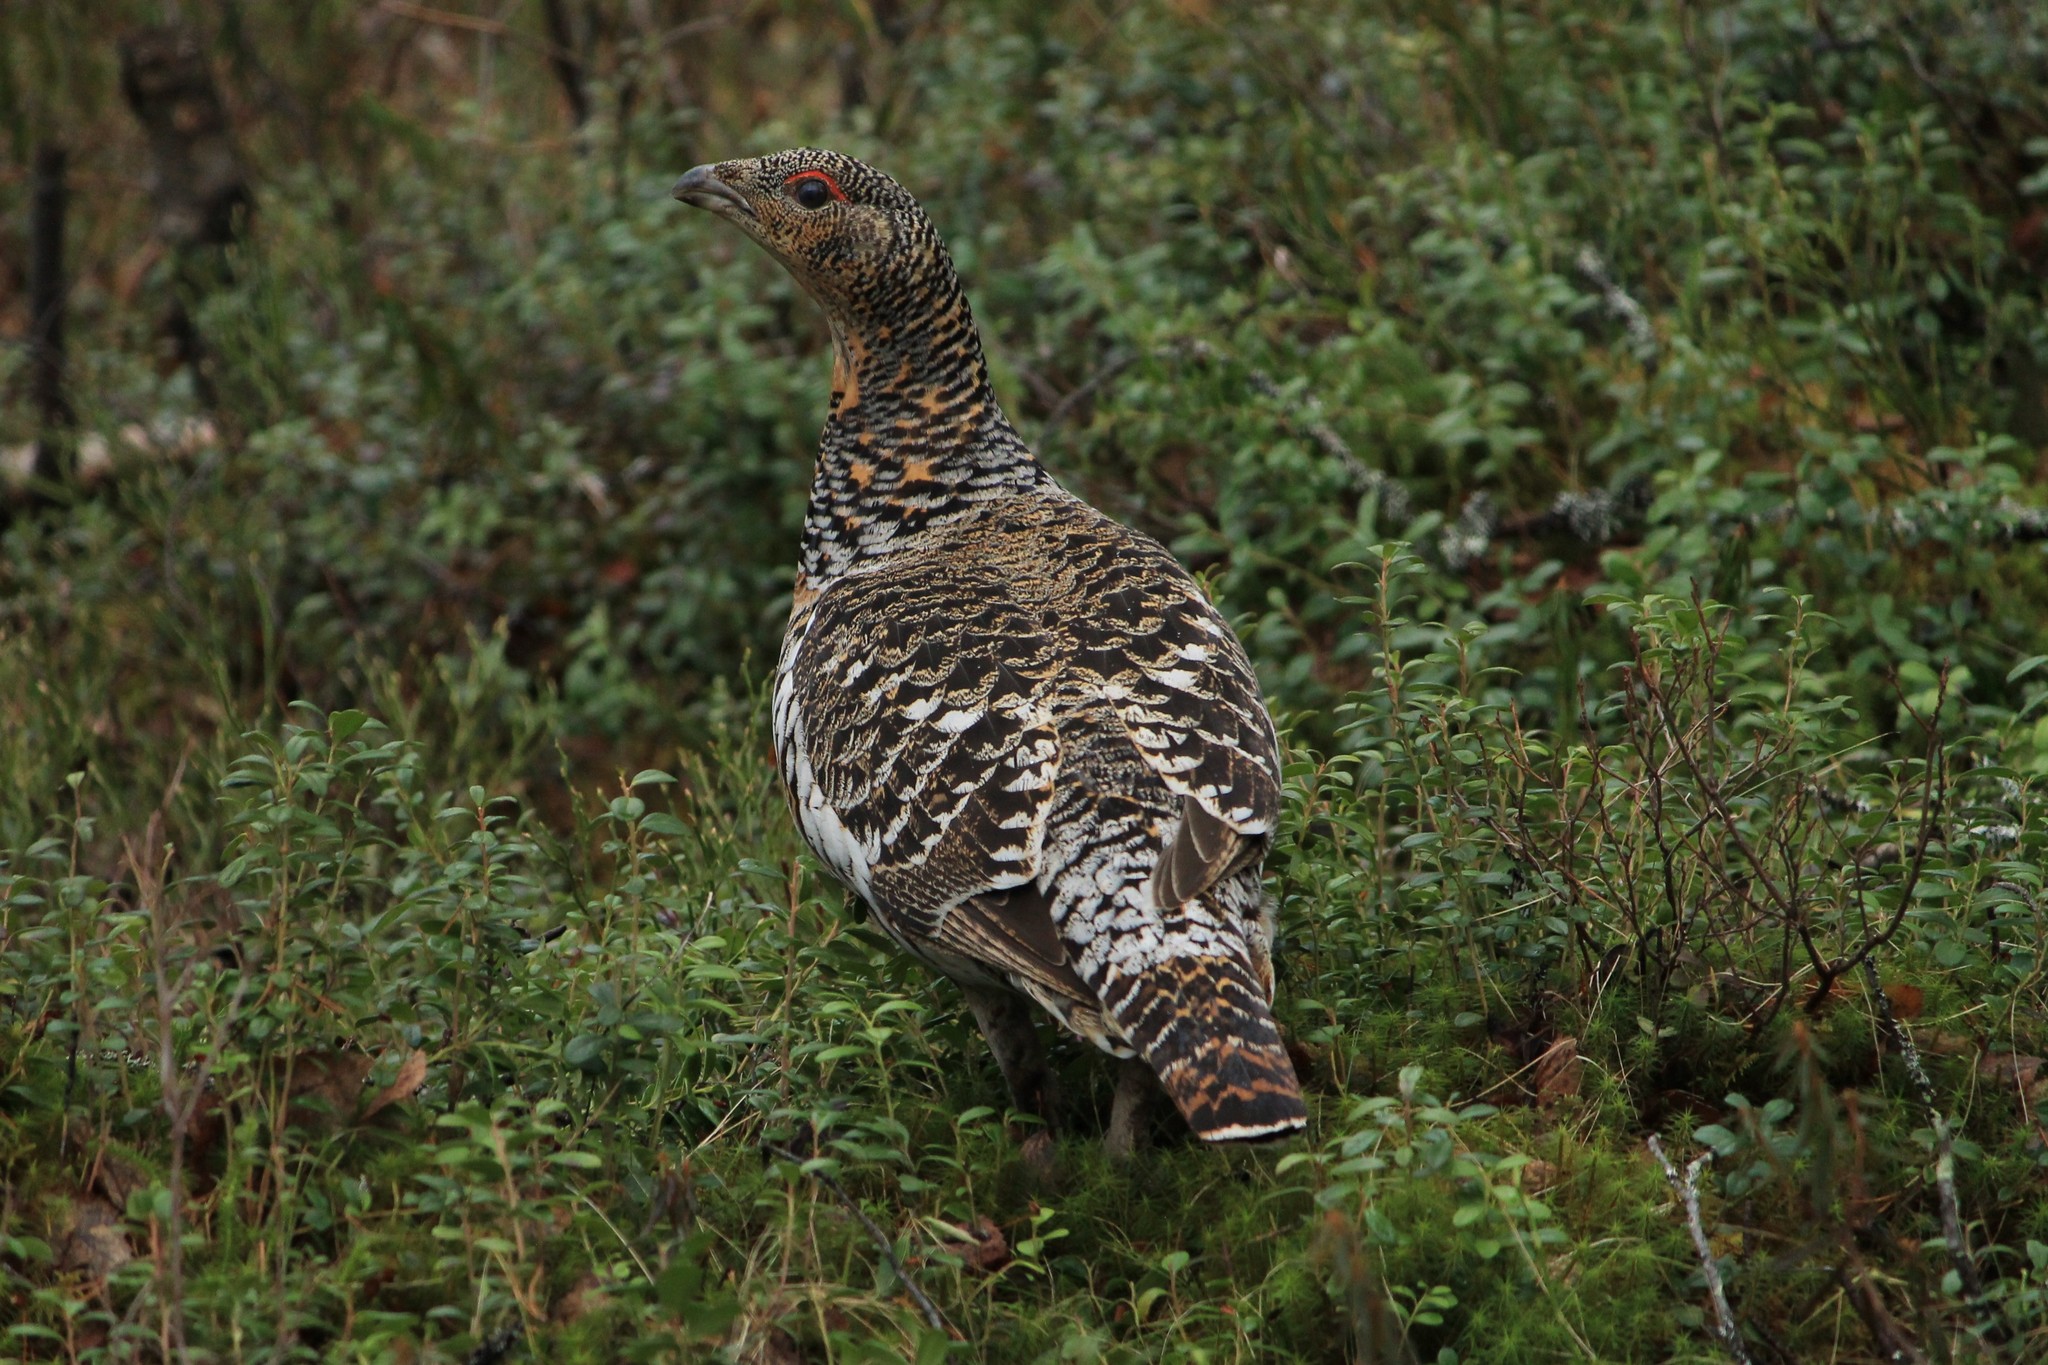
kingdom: Animalia
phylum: Chordata
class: Aves
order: Galliformes
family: Phasianidae
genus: Tetrao
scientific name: Tetrao urogallus
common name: Western capercaillie
